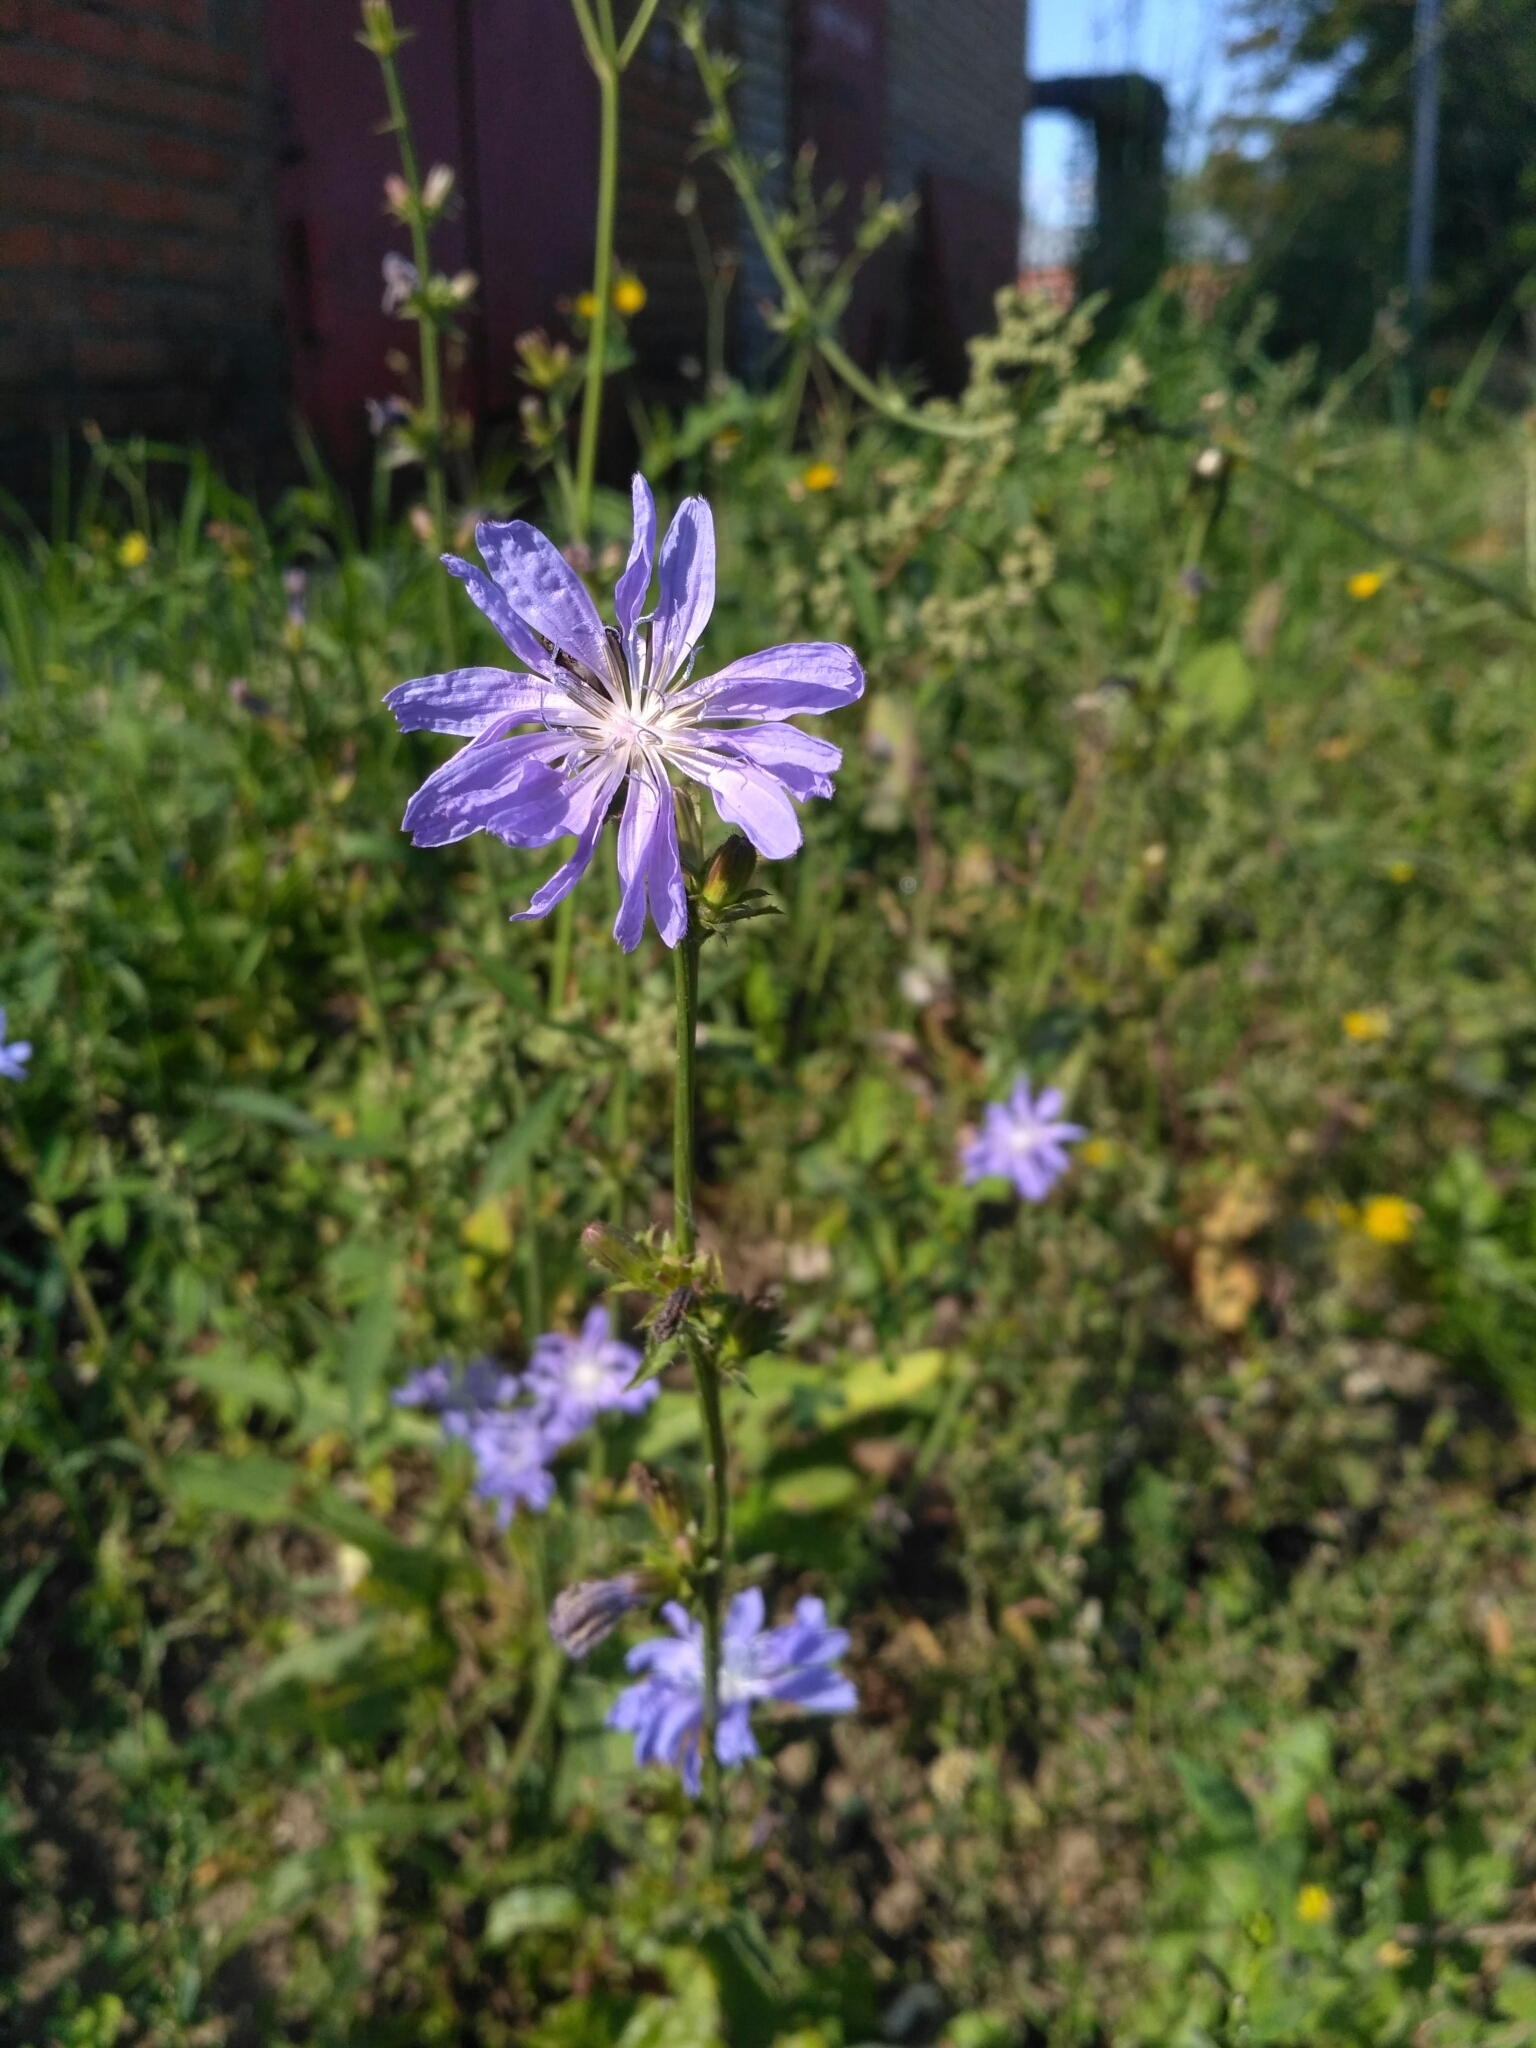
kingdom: Plantae
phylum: Tracheophyta
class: Magnoliopsida
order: Asterales
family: Asteraceae
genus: Cichorium
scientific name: Cichorium intybus
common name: Chicory
